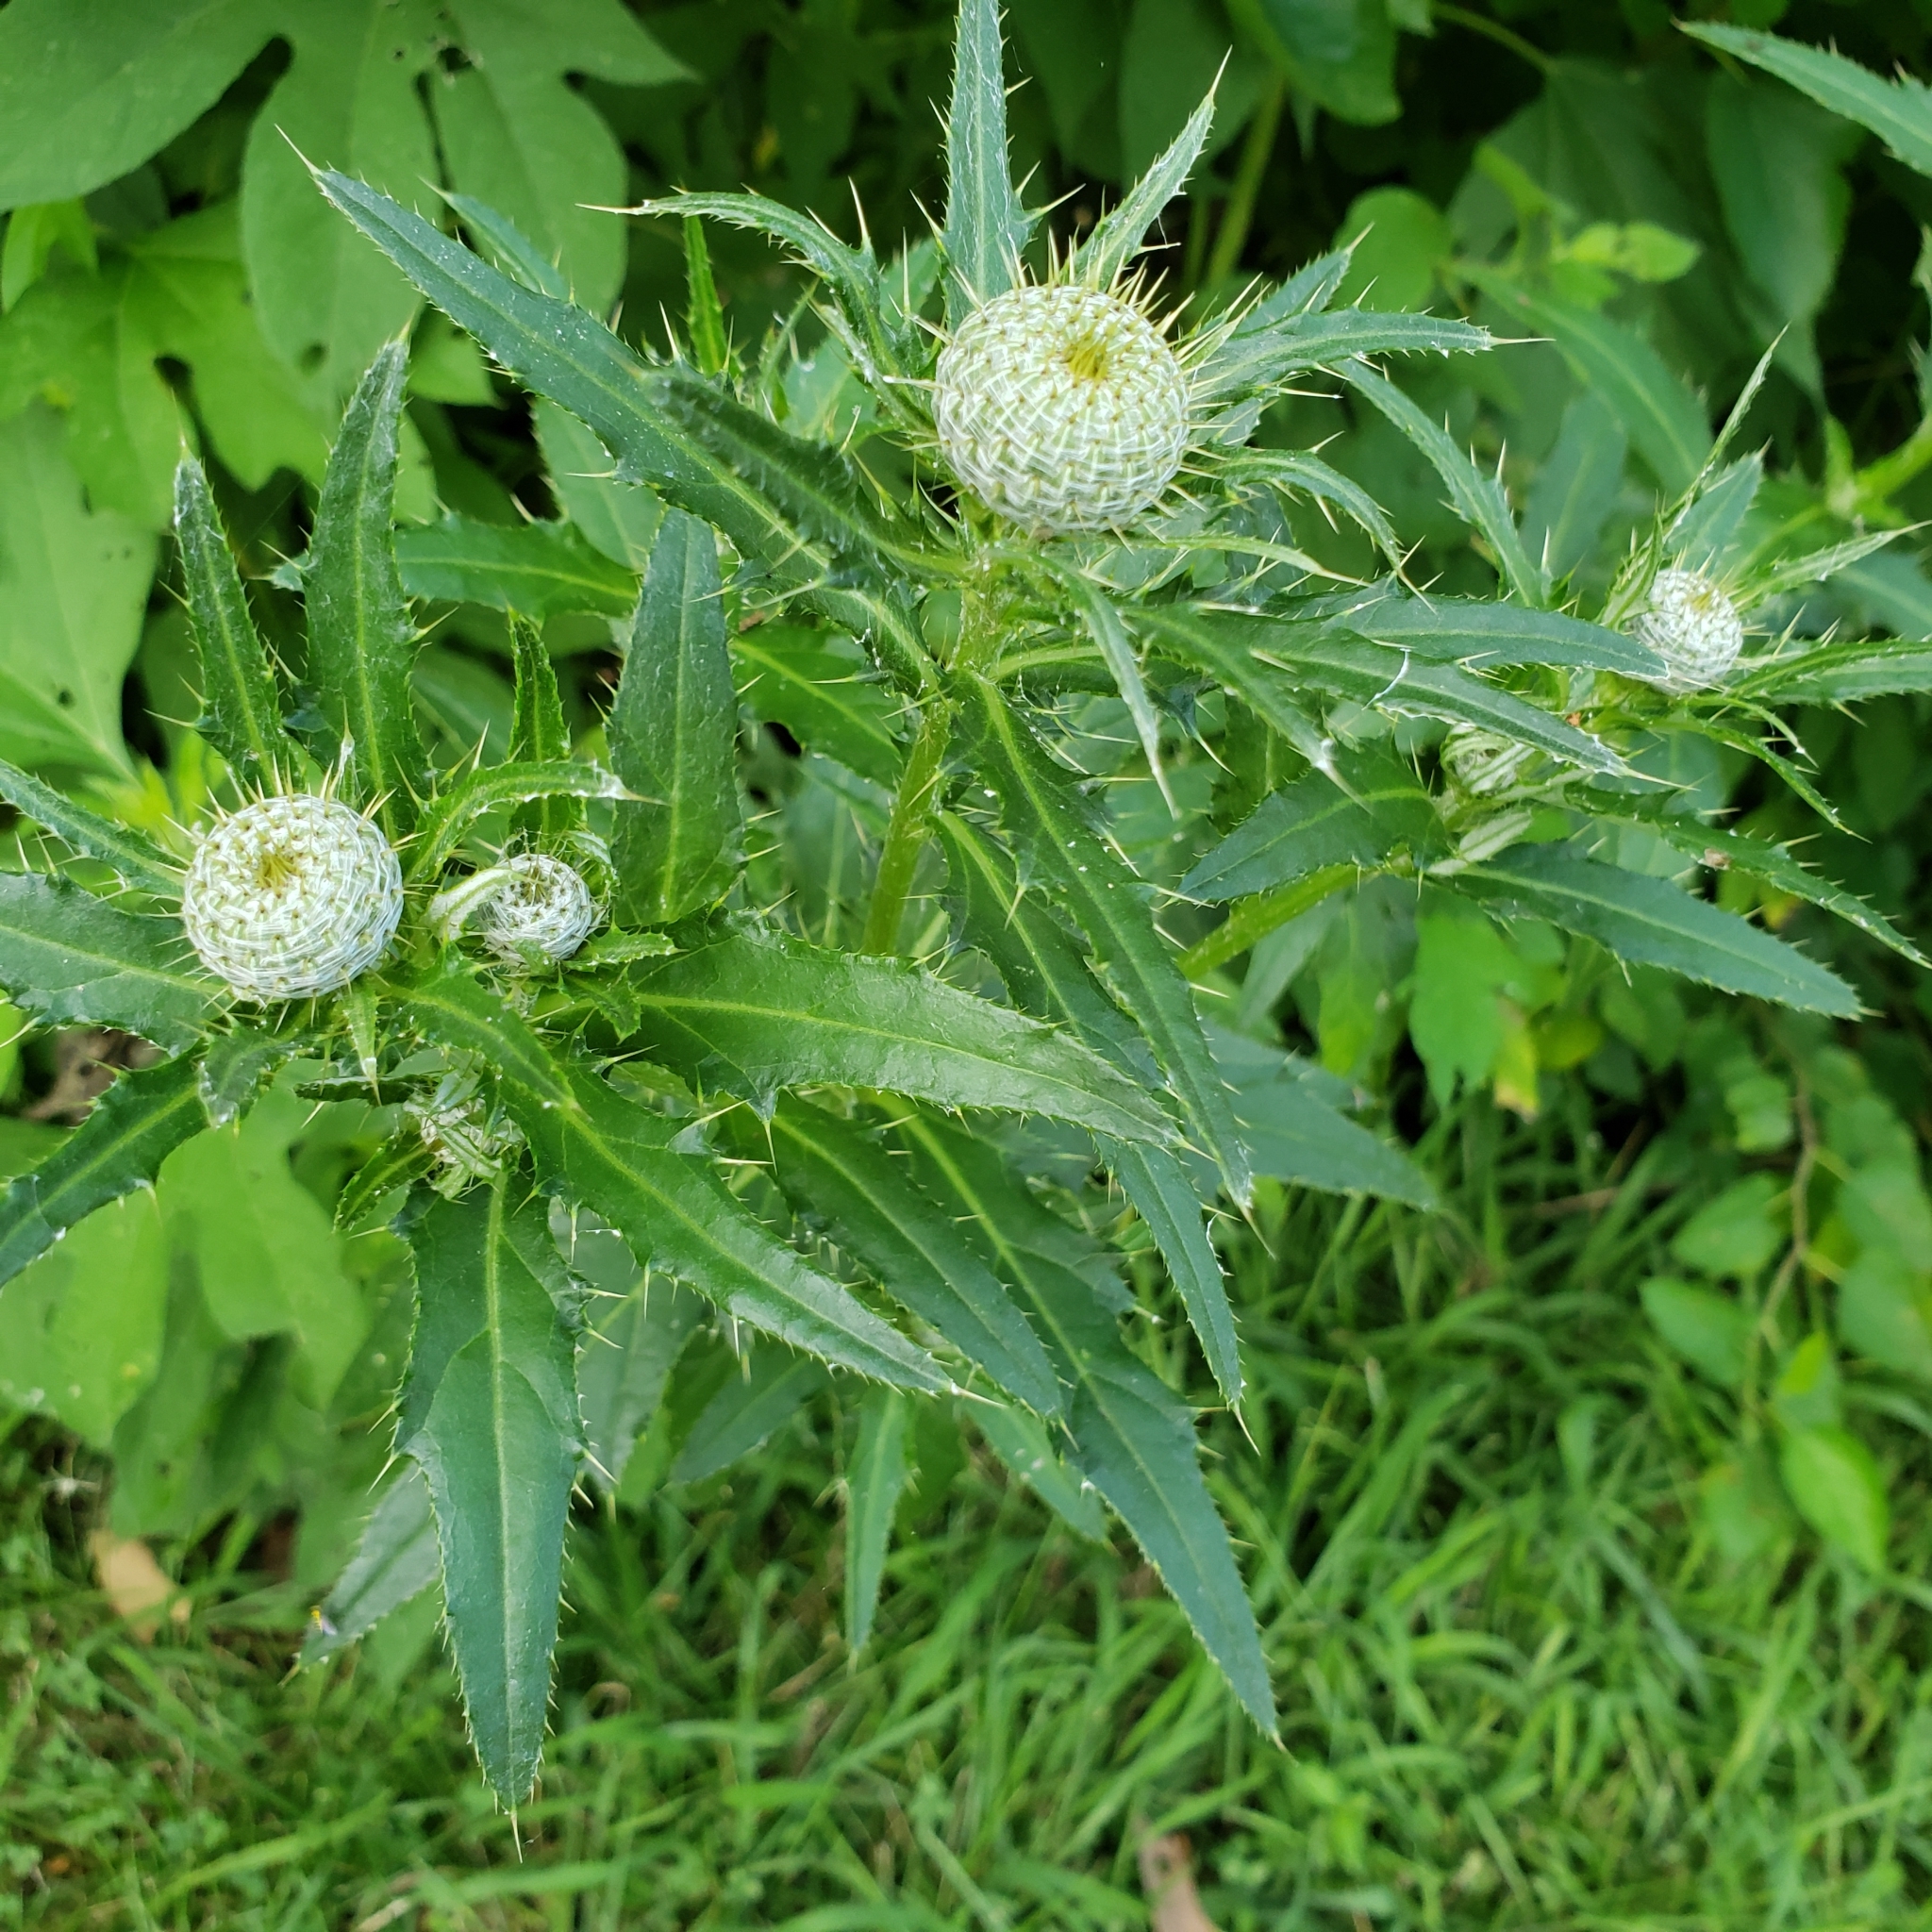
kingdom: Plantae
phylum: Tracheophyta
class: Magnoliopsida
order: Asterales
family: Asteraceae
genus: Cirsium
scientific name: Cirsium altissimum
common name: Roadside thistle
